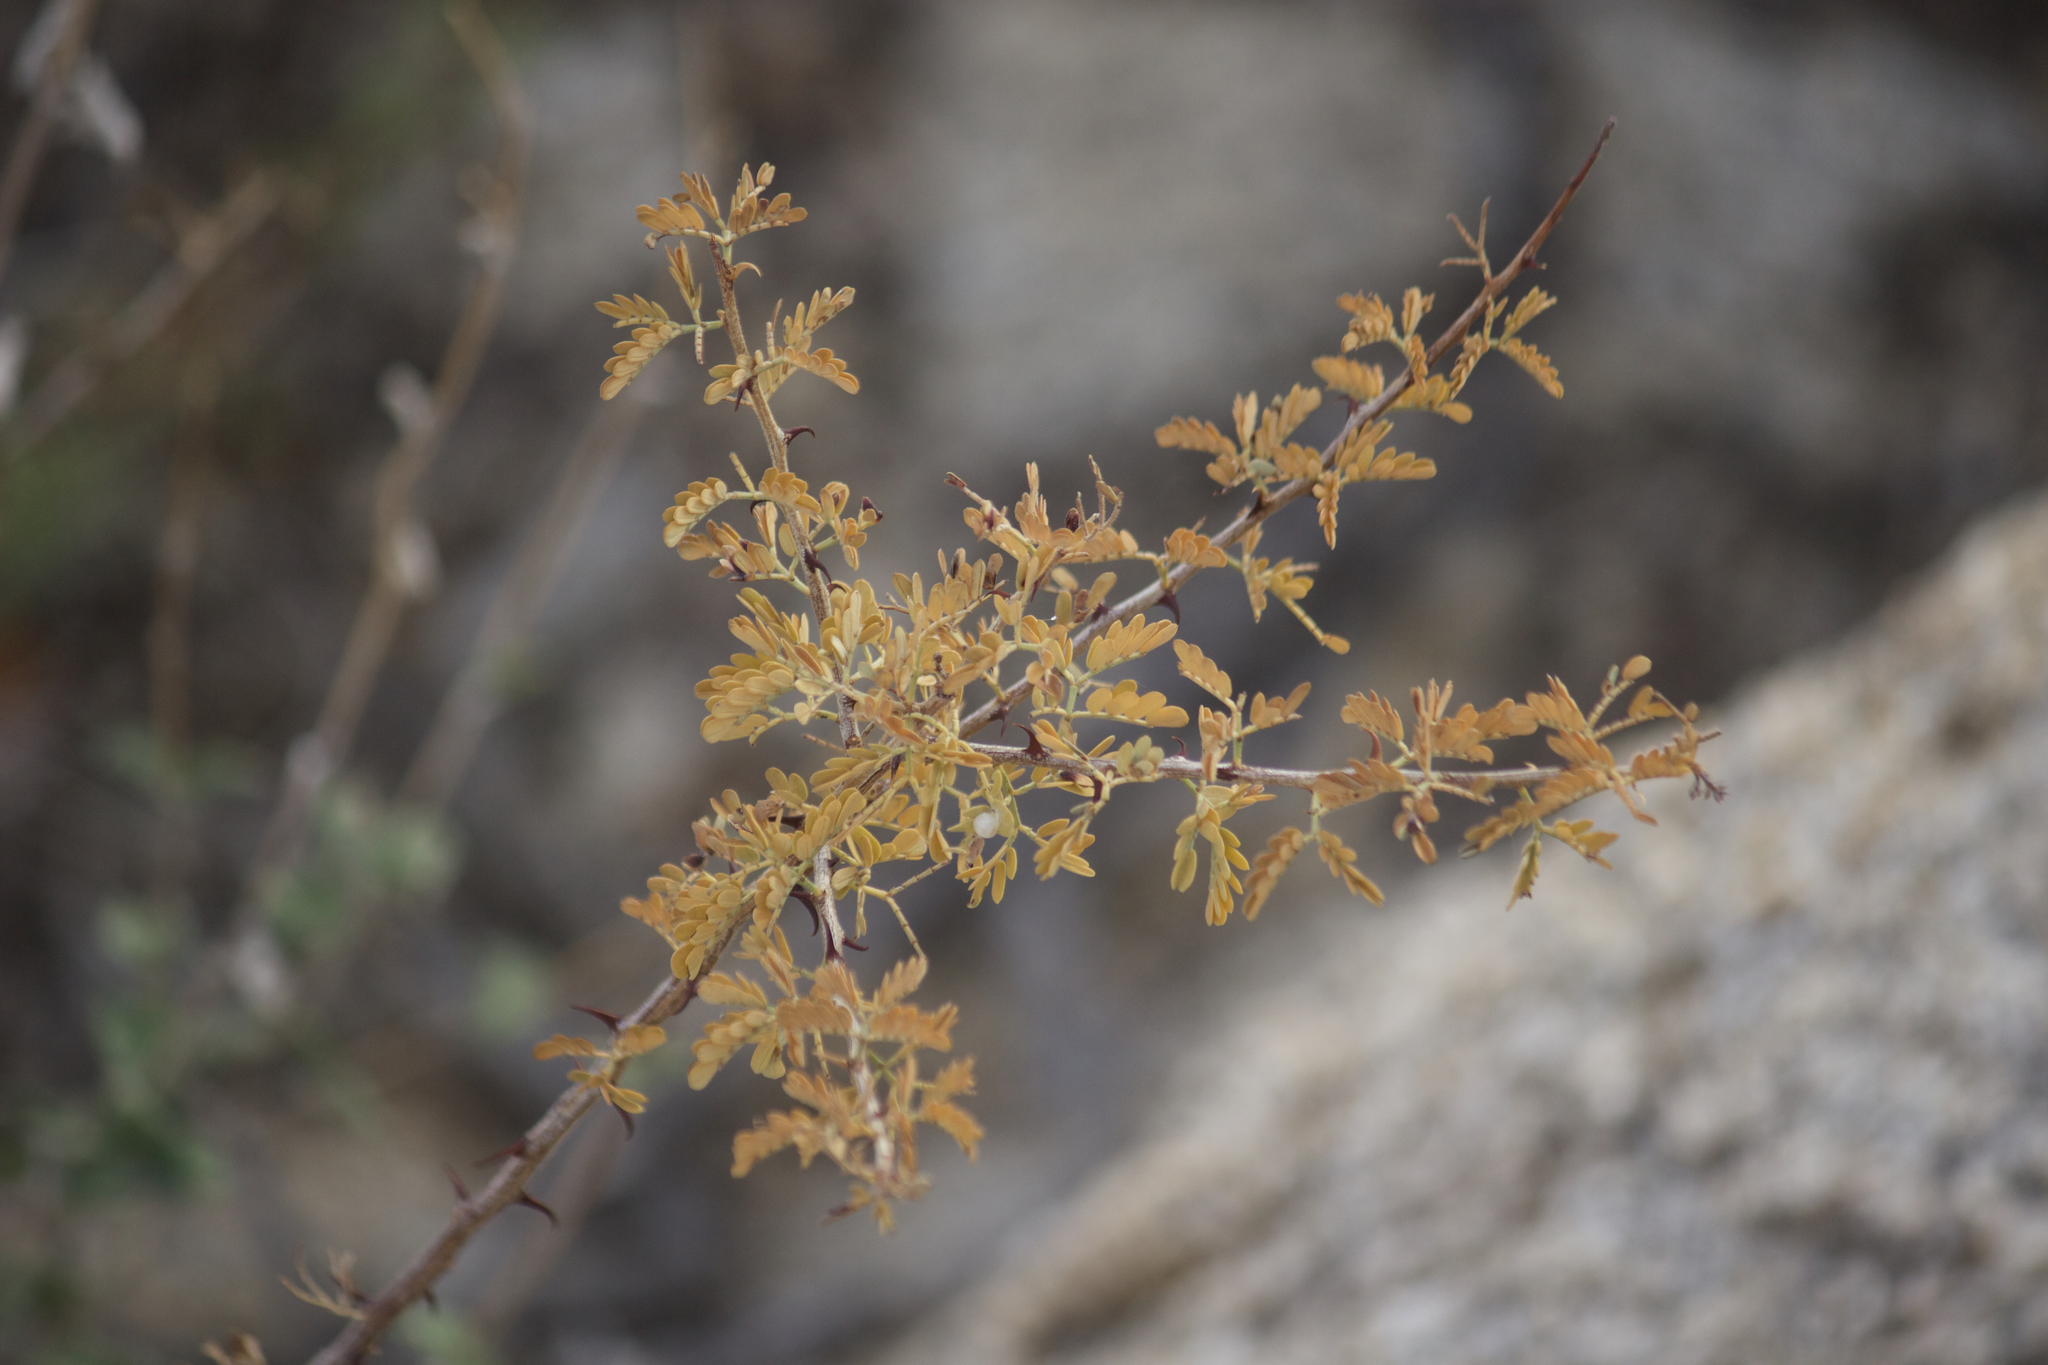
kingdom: Plantae
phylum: Tracheophyta
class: Magnoliopsida
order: Fabales
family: Fabaceae
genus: Senegalia
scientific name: Senegalia greggii
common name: Texas-mimosa
